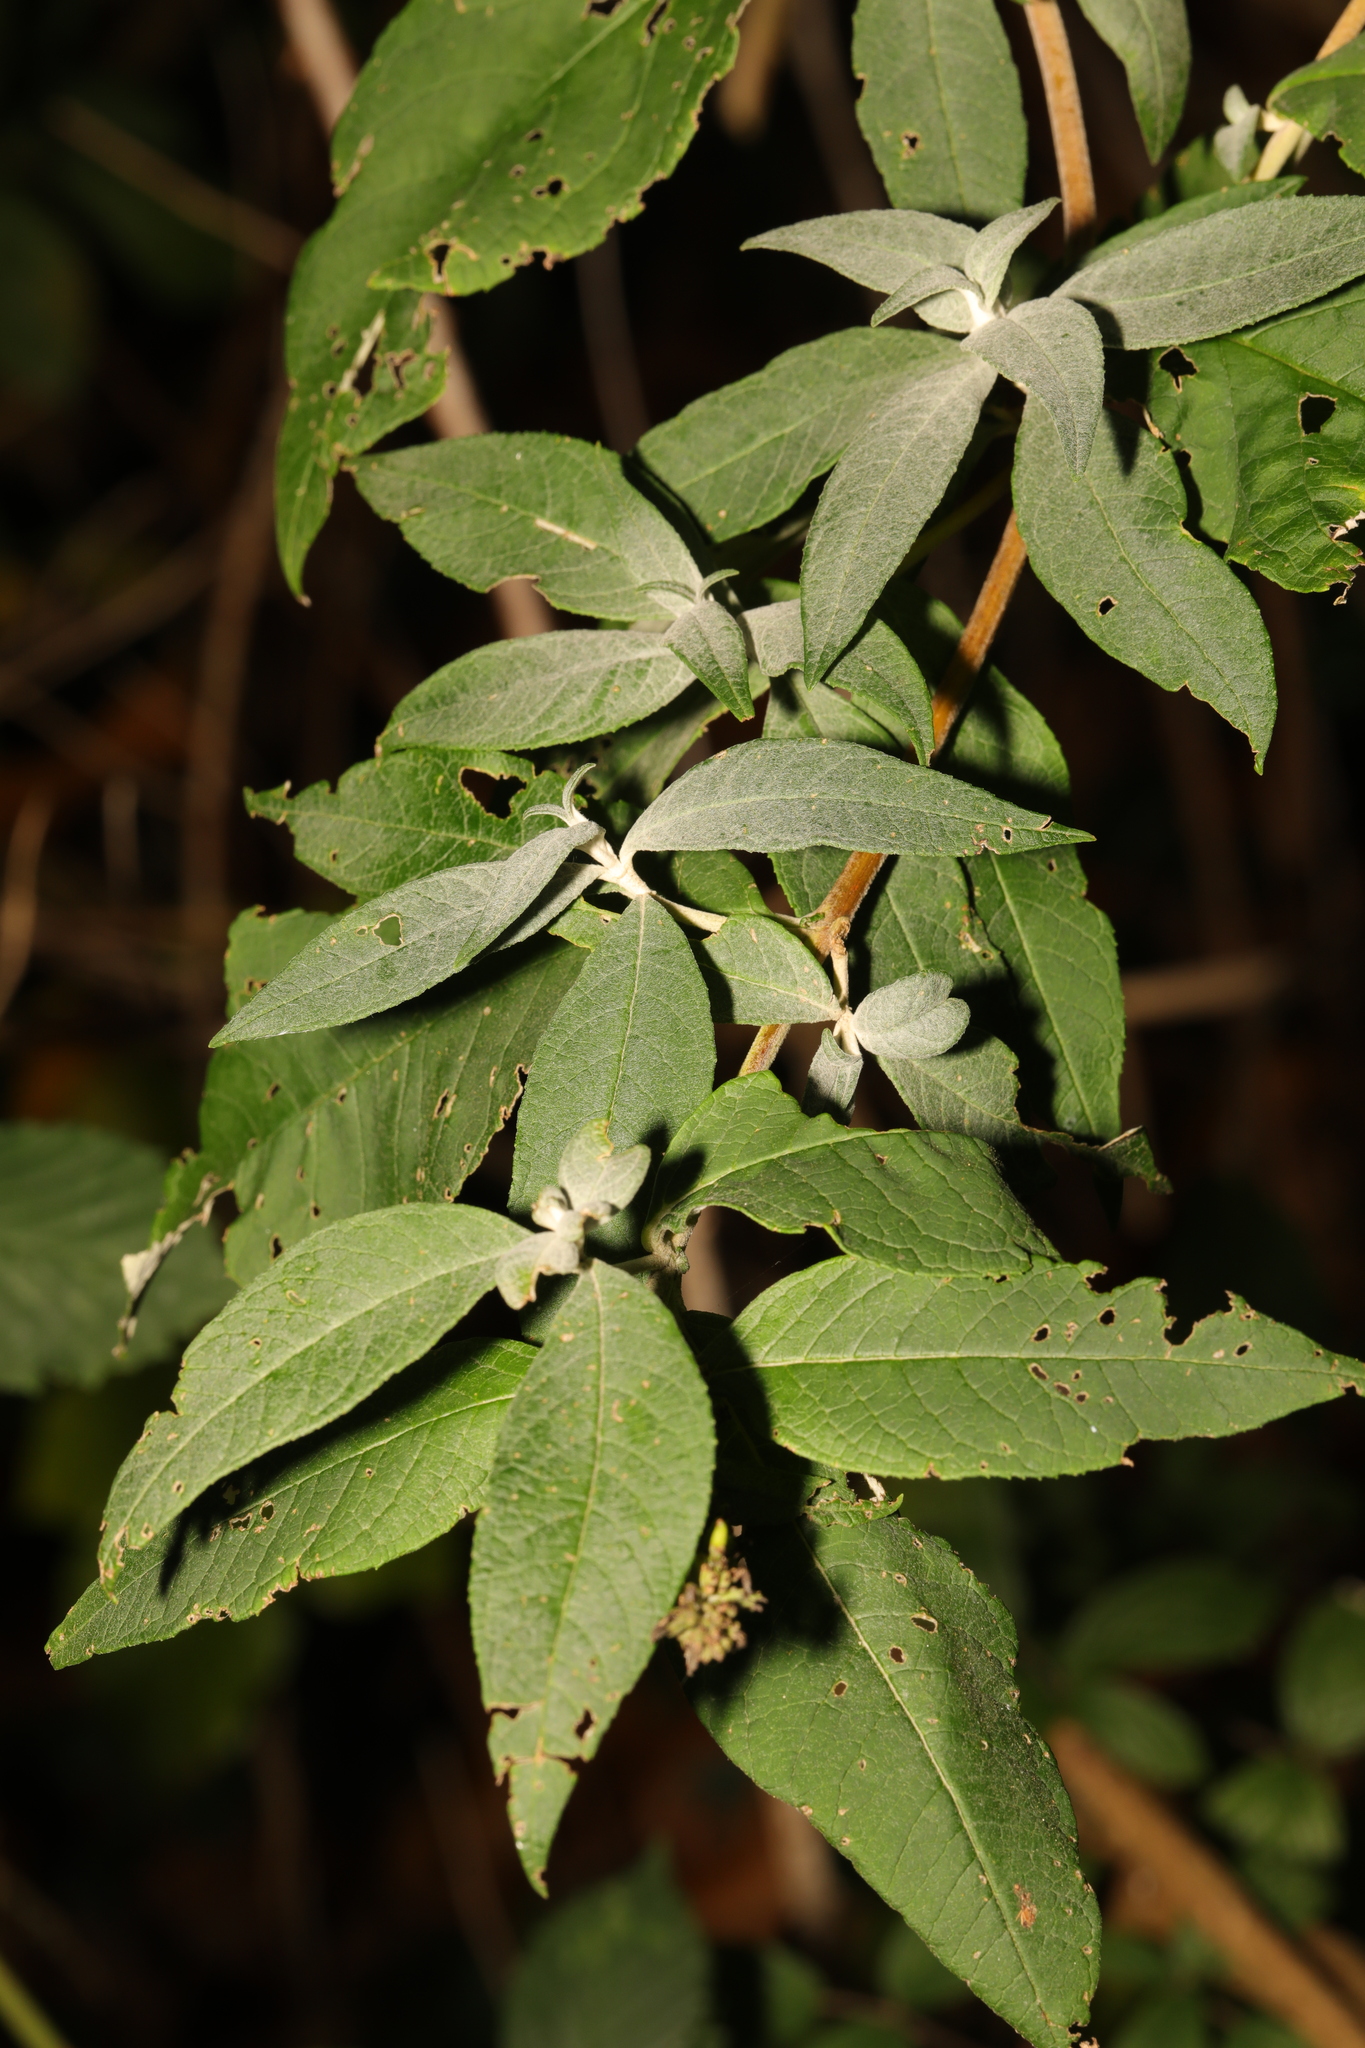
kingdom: Plantae
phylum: Tracheophyta
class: Magnoliopsida
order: Lamiales
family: Scrophulariaceae
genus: Buddleja
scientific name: Buddleja davidii
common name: Butterfly-bush
